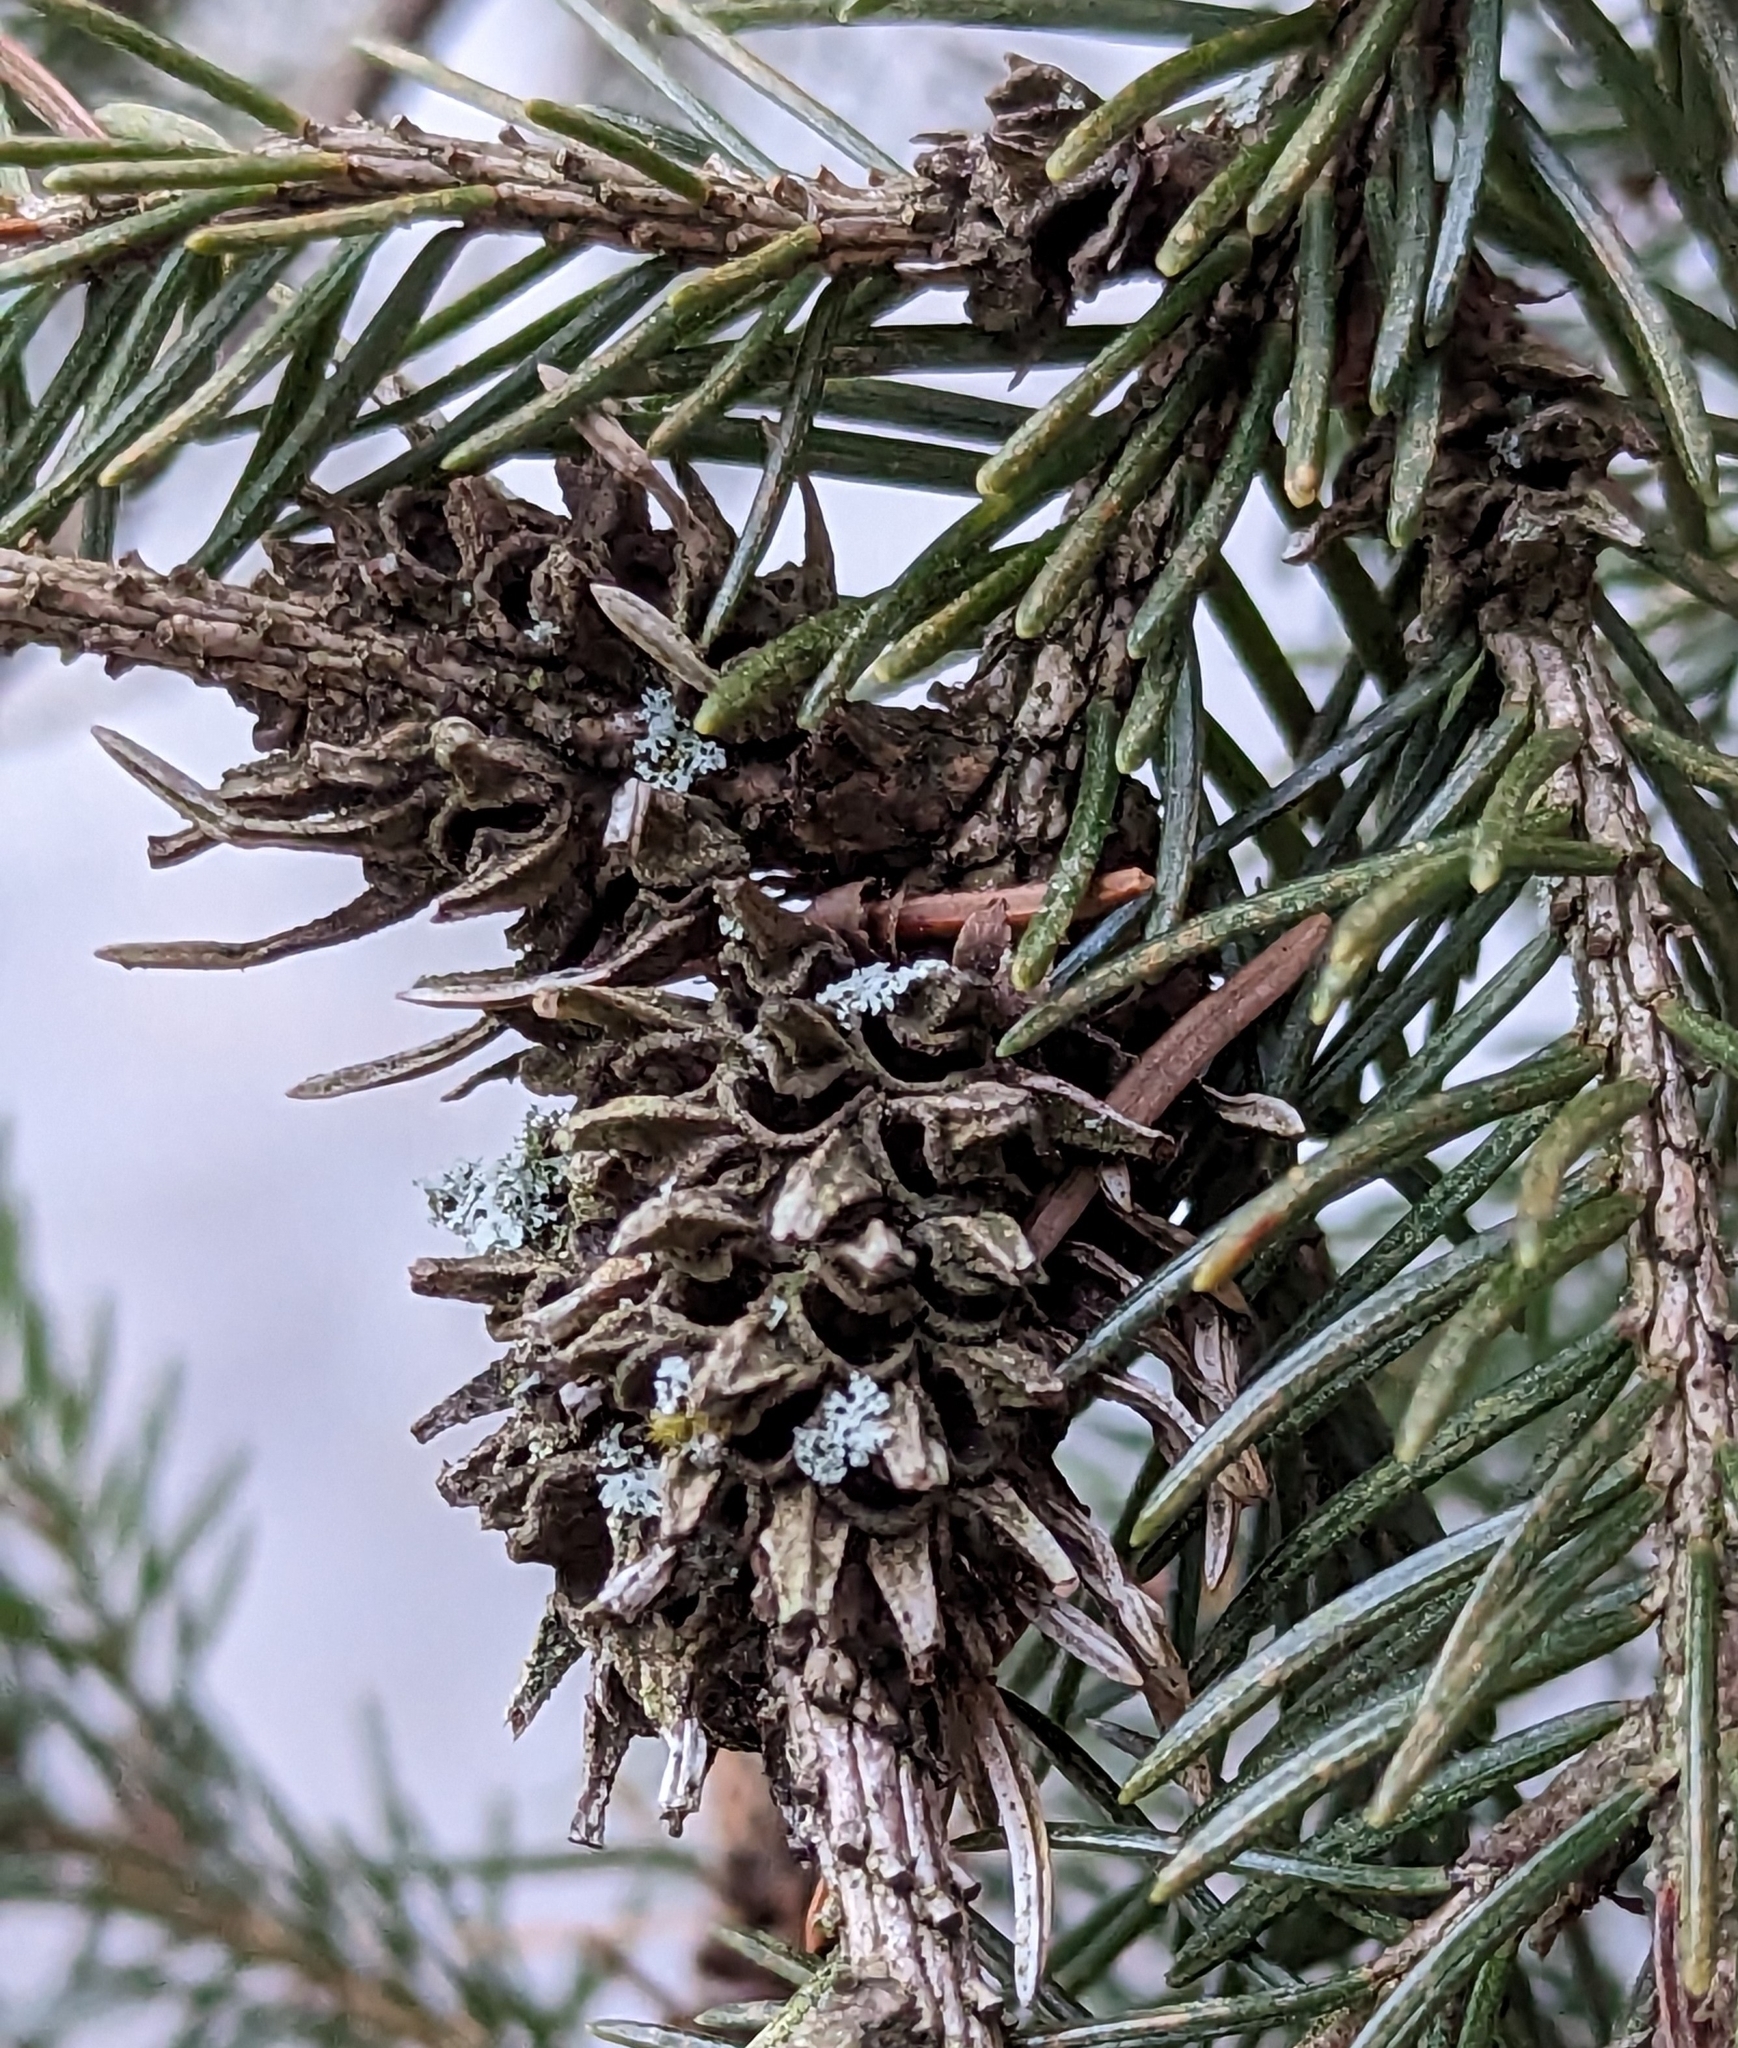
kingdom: Animalia
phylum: Arthropoda
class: Insecta
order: Hemiptera
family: Adelgidae
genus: Adelges
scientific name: Adelges abietis
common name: Eastern spruce gall adelgid
